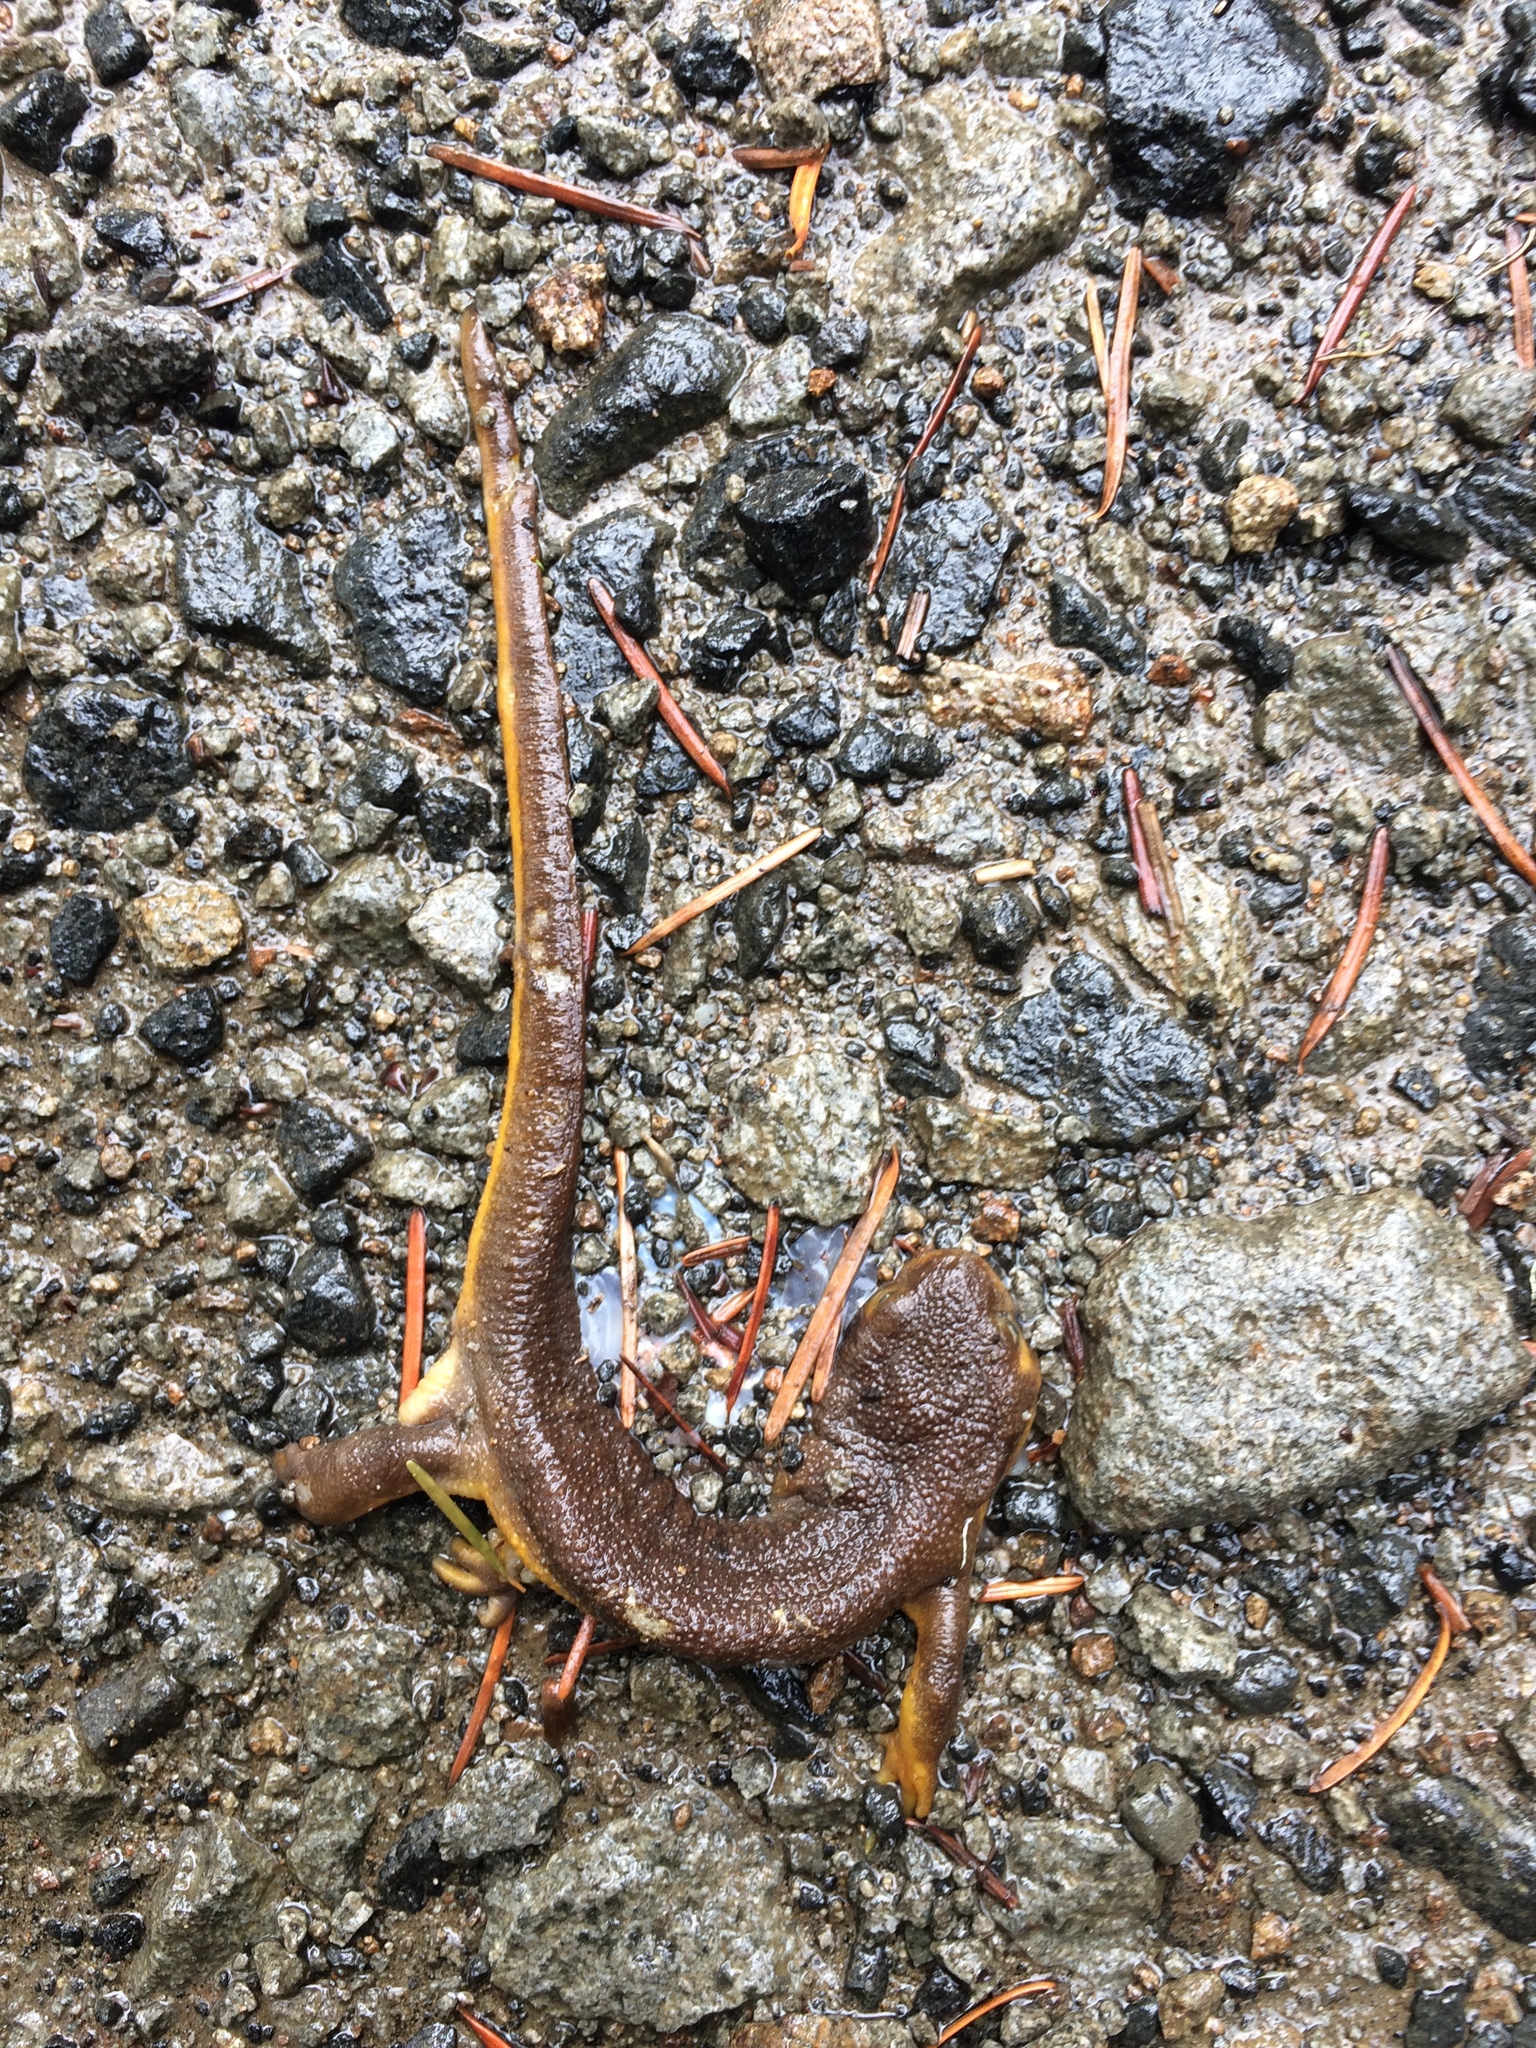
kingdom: Animalia
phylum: Chordata
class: Amphibia
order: Caudata
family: Salamandridae
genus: Taricha
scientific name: Taricha granulosa
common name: Roughskin newt
